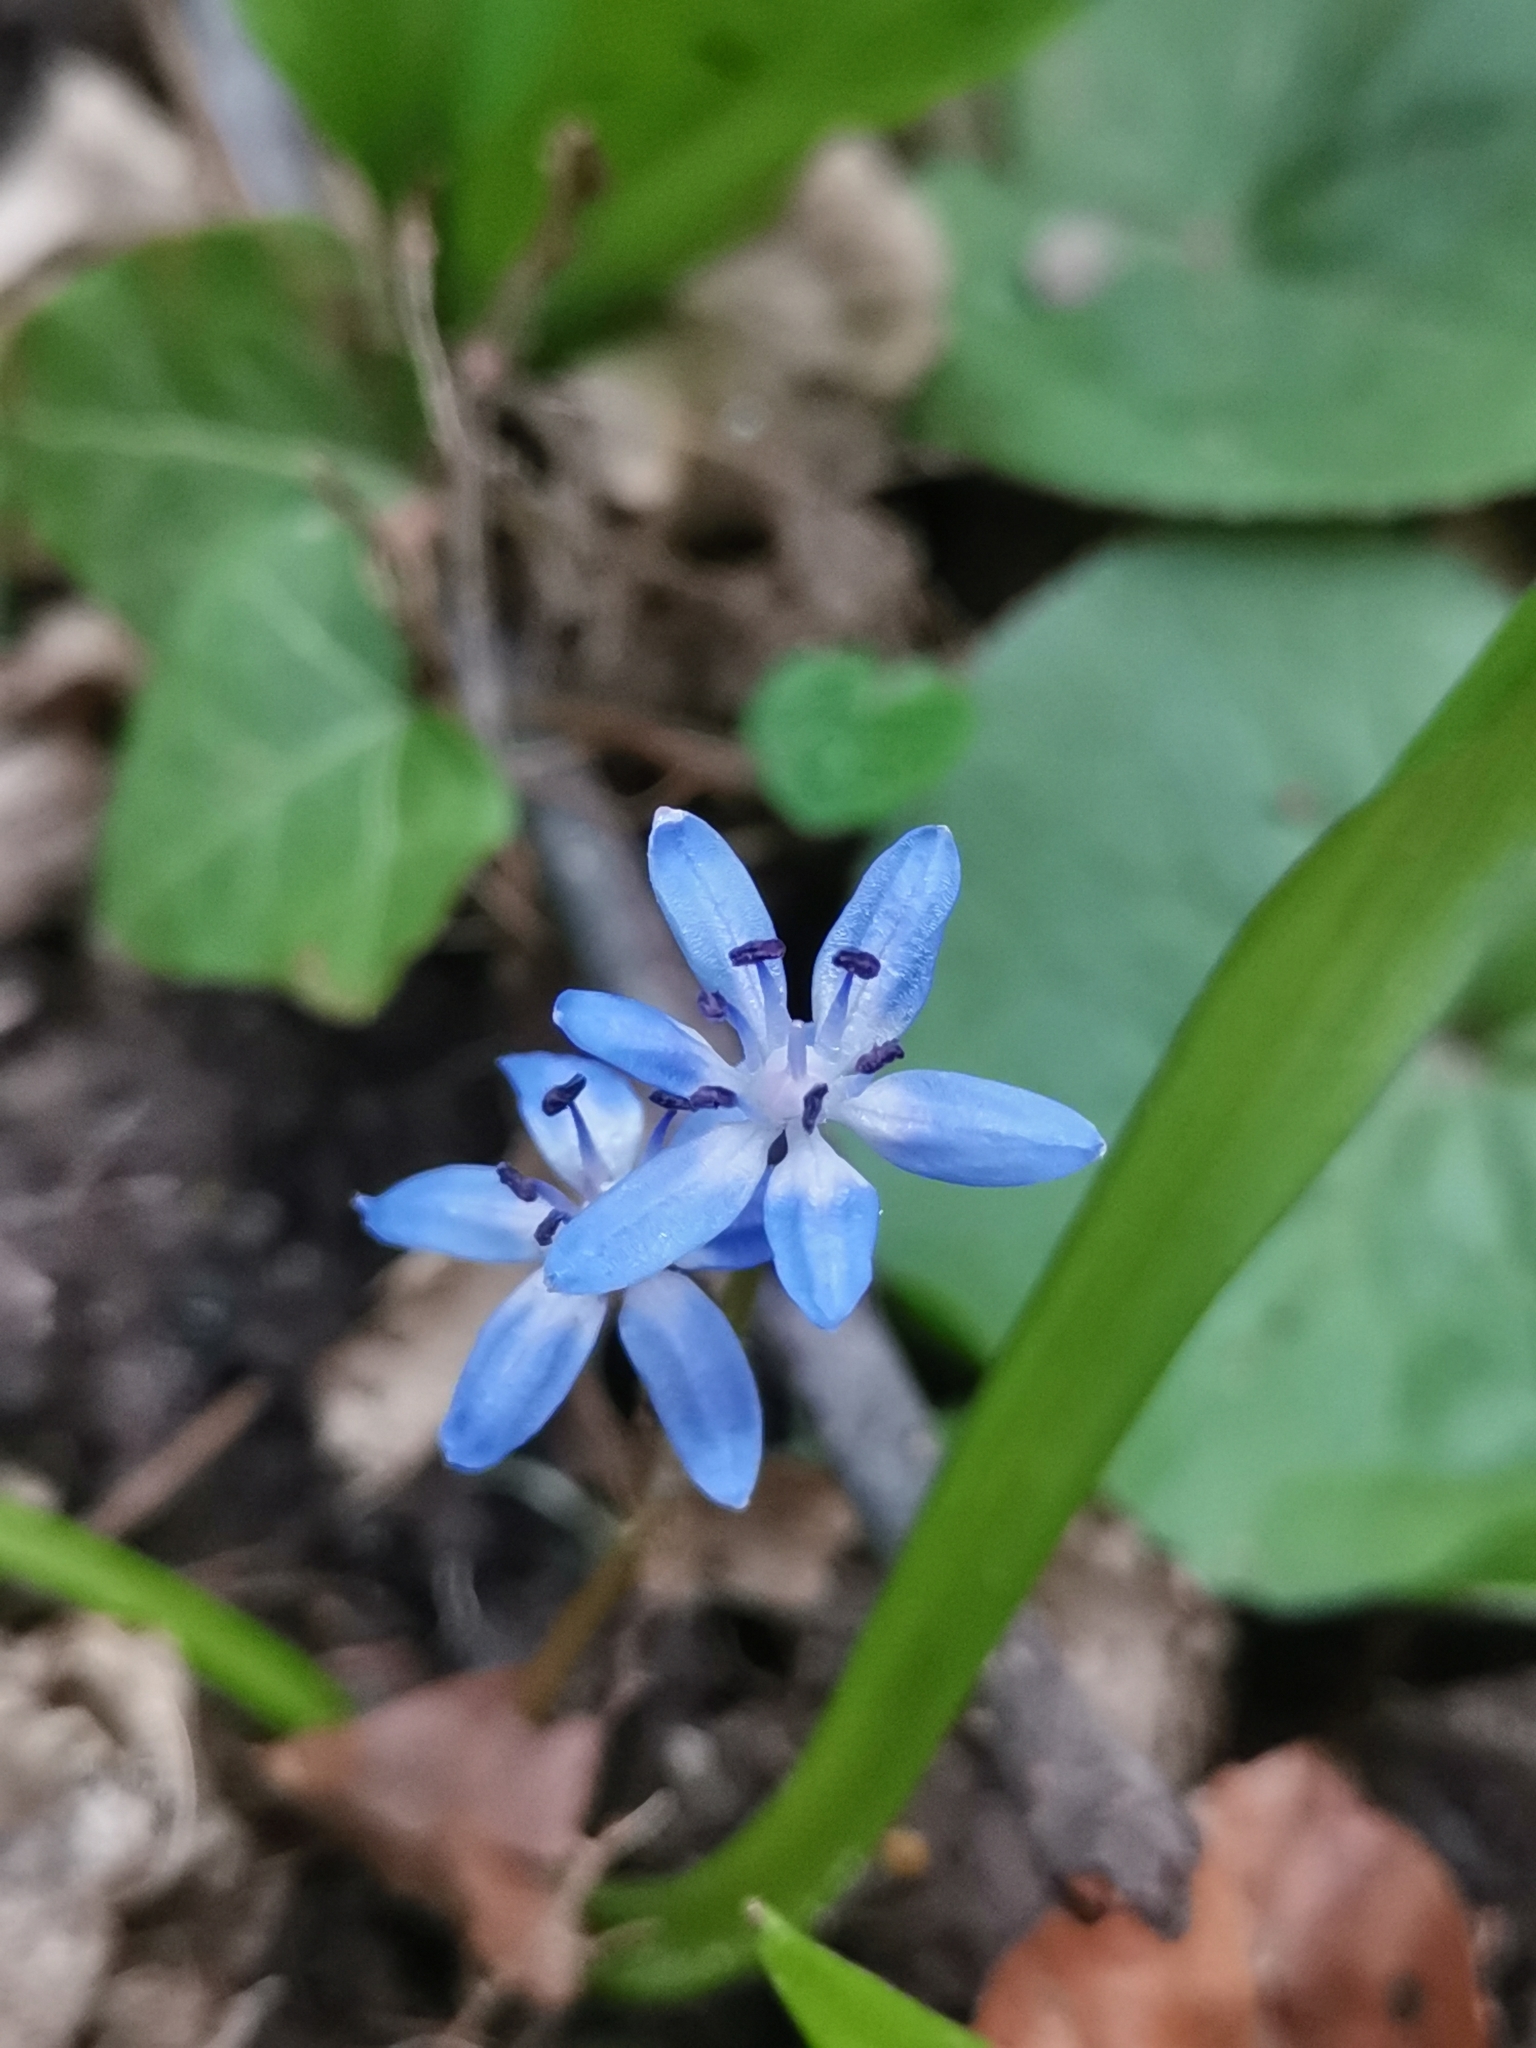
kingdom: Plantae
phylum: Tracheophyta
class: Liliopsida
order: Asparagales
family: Asparagaceae
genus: Scilla
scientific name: Scilla bifolia
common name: Alpine squill
